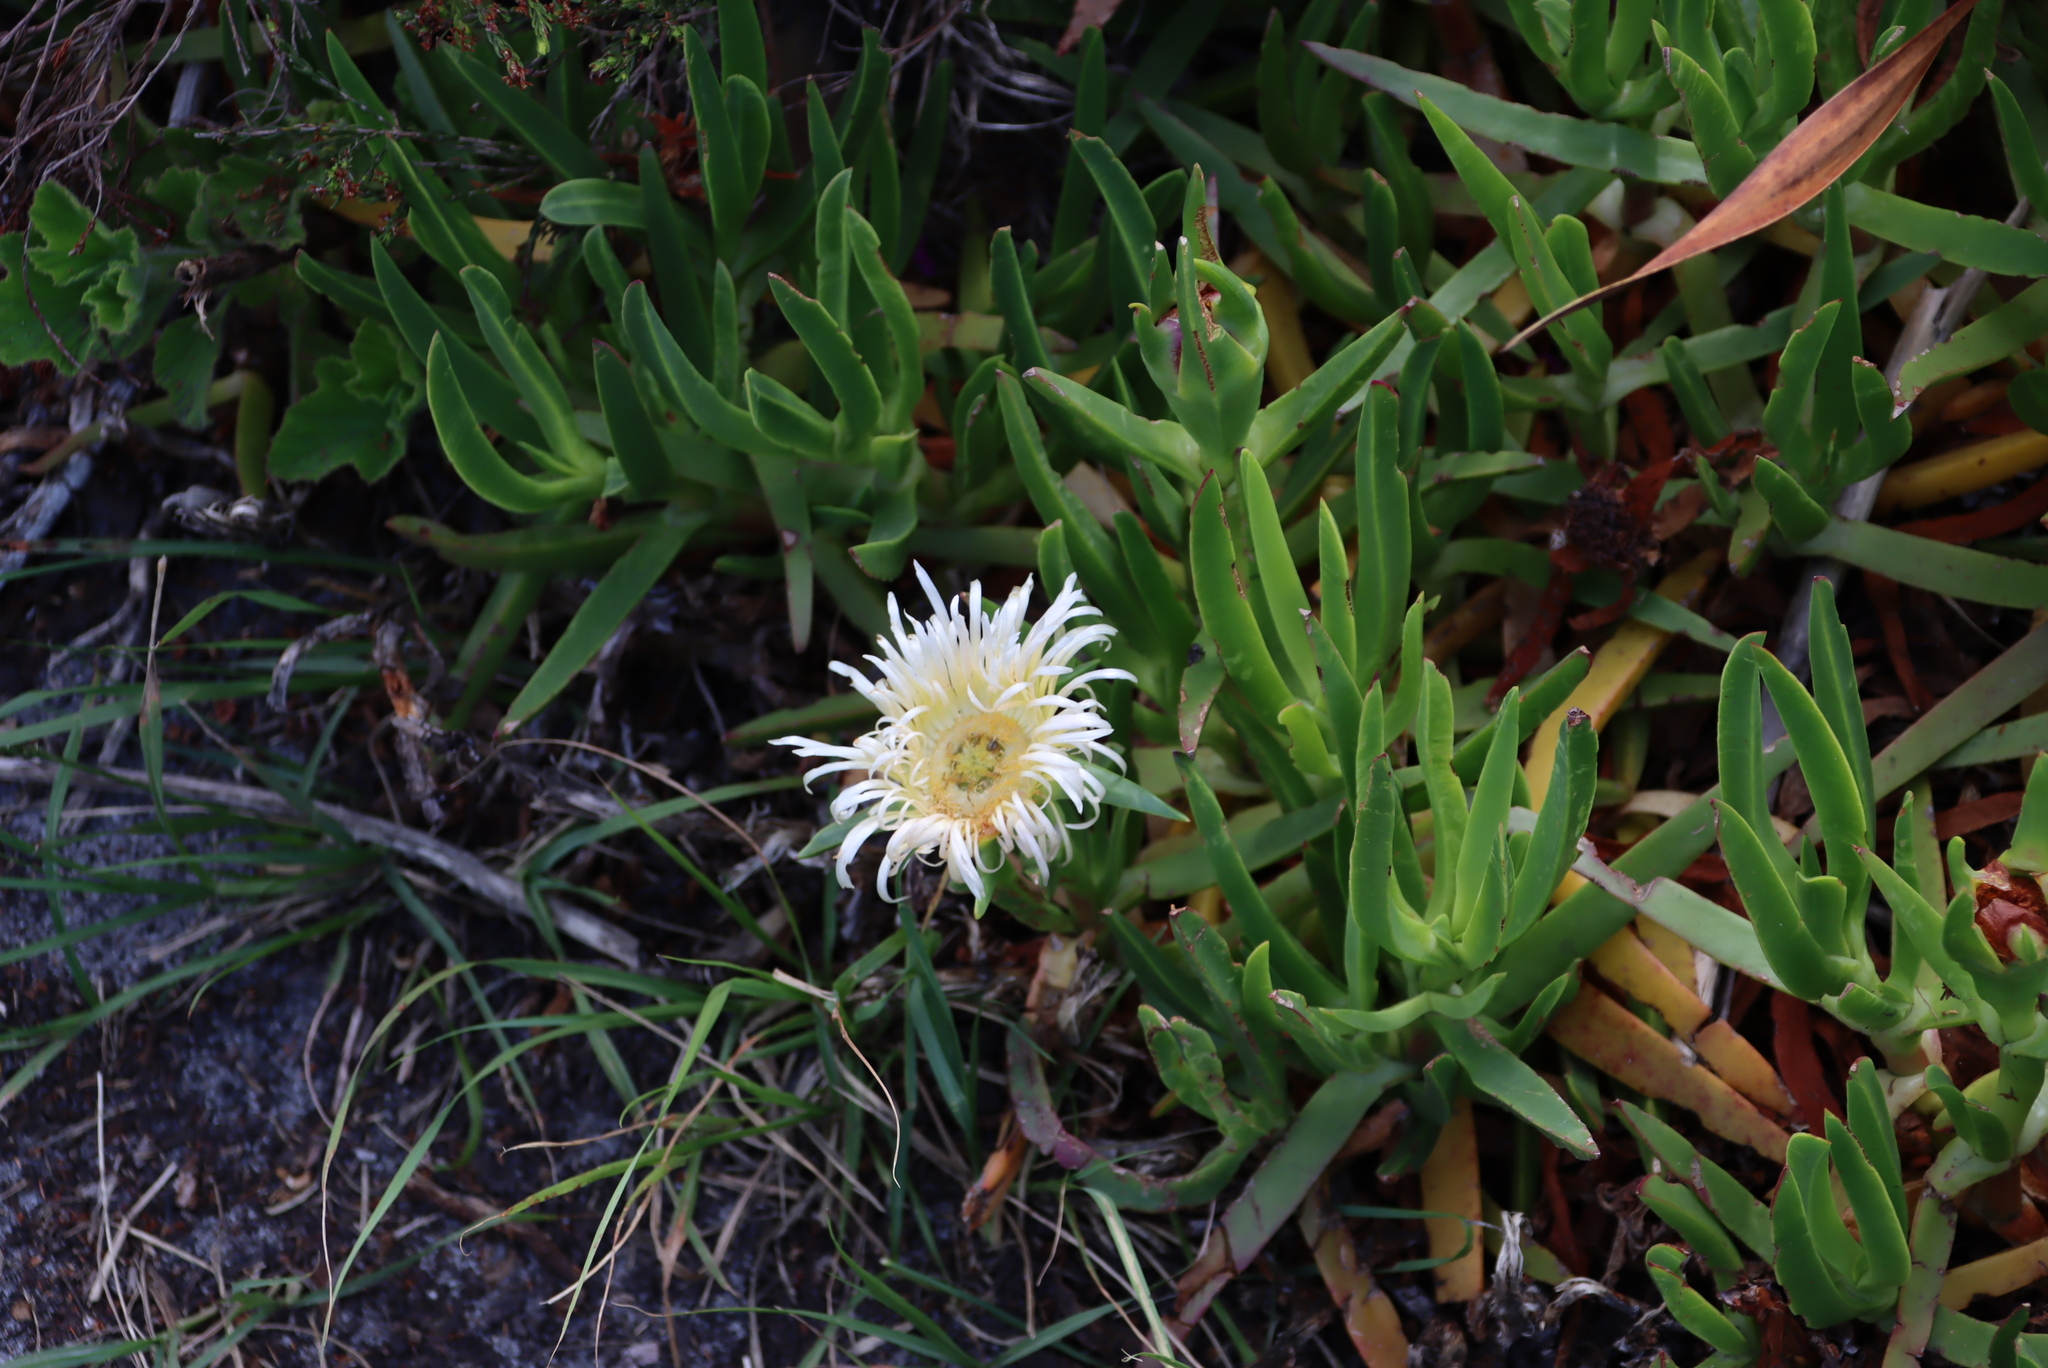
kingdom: Plantae
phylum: Tracheophyta
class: Magnoliopsida
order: Caryophyllales
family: Aizoaceae
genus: Carpobrotus
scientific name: Carpobrotus edulis
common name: Hottentot-fig
